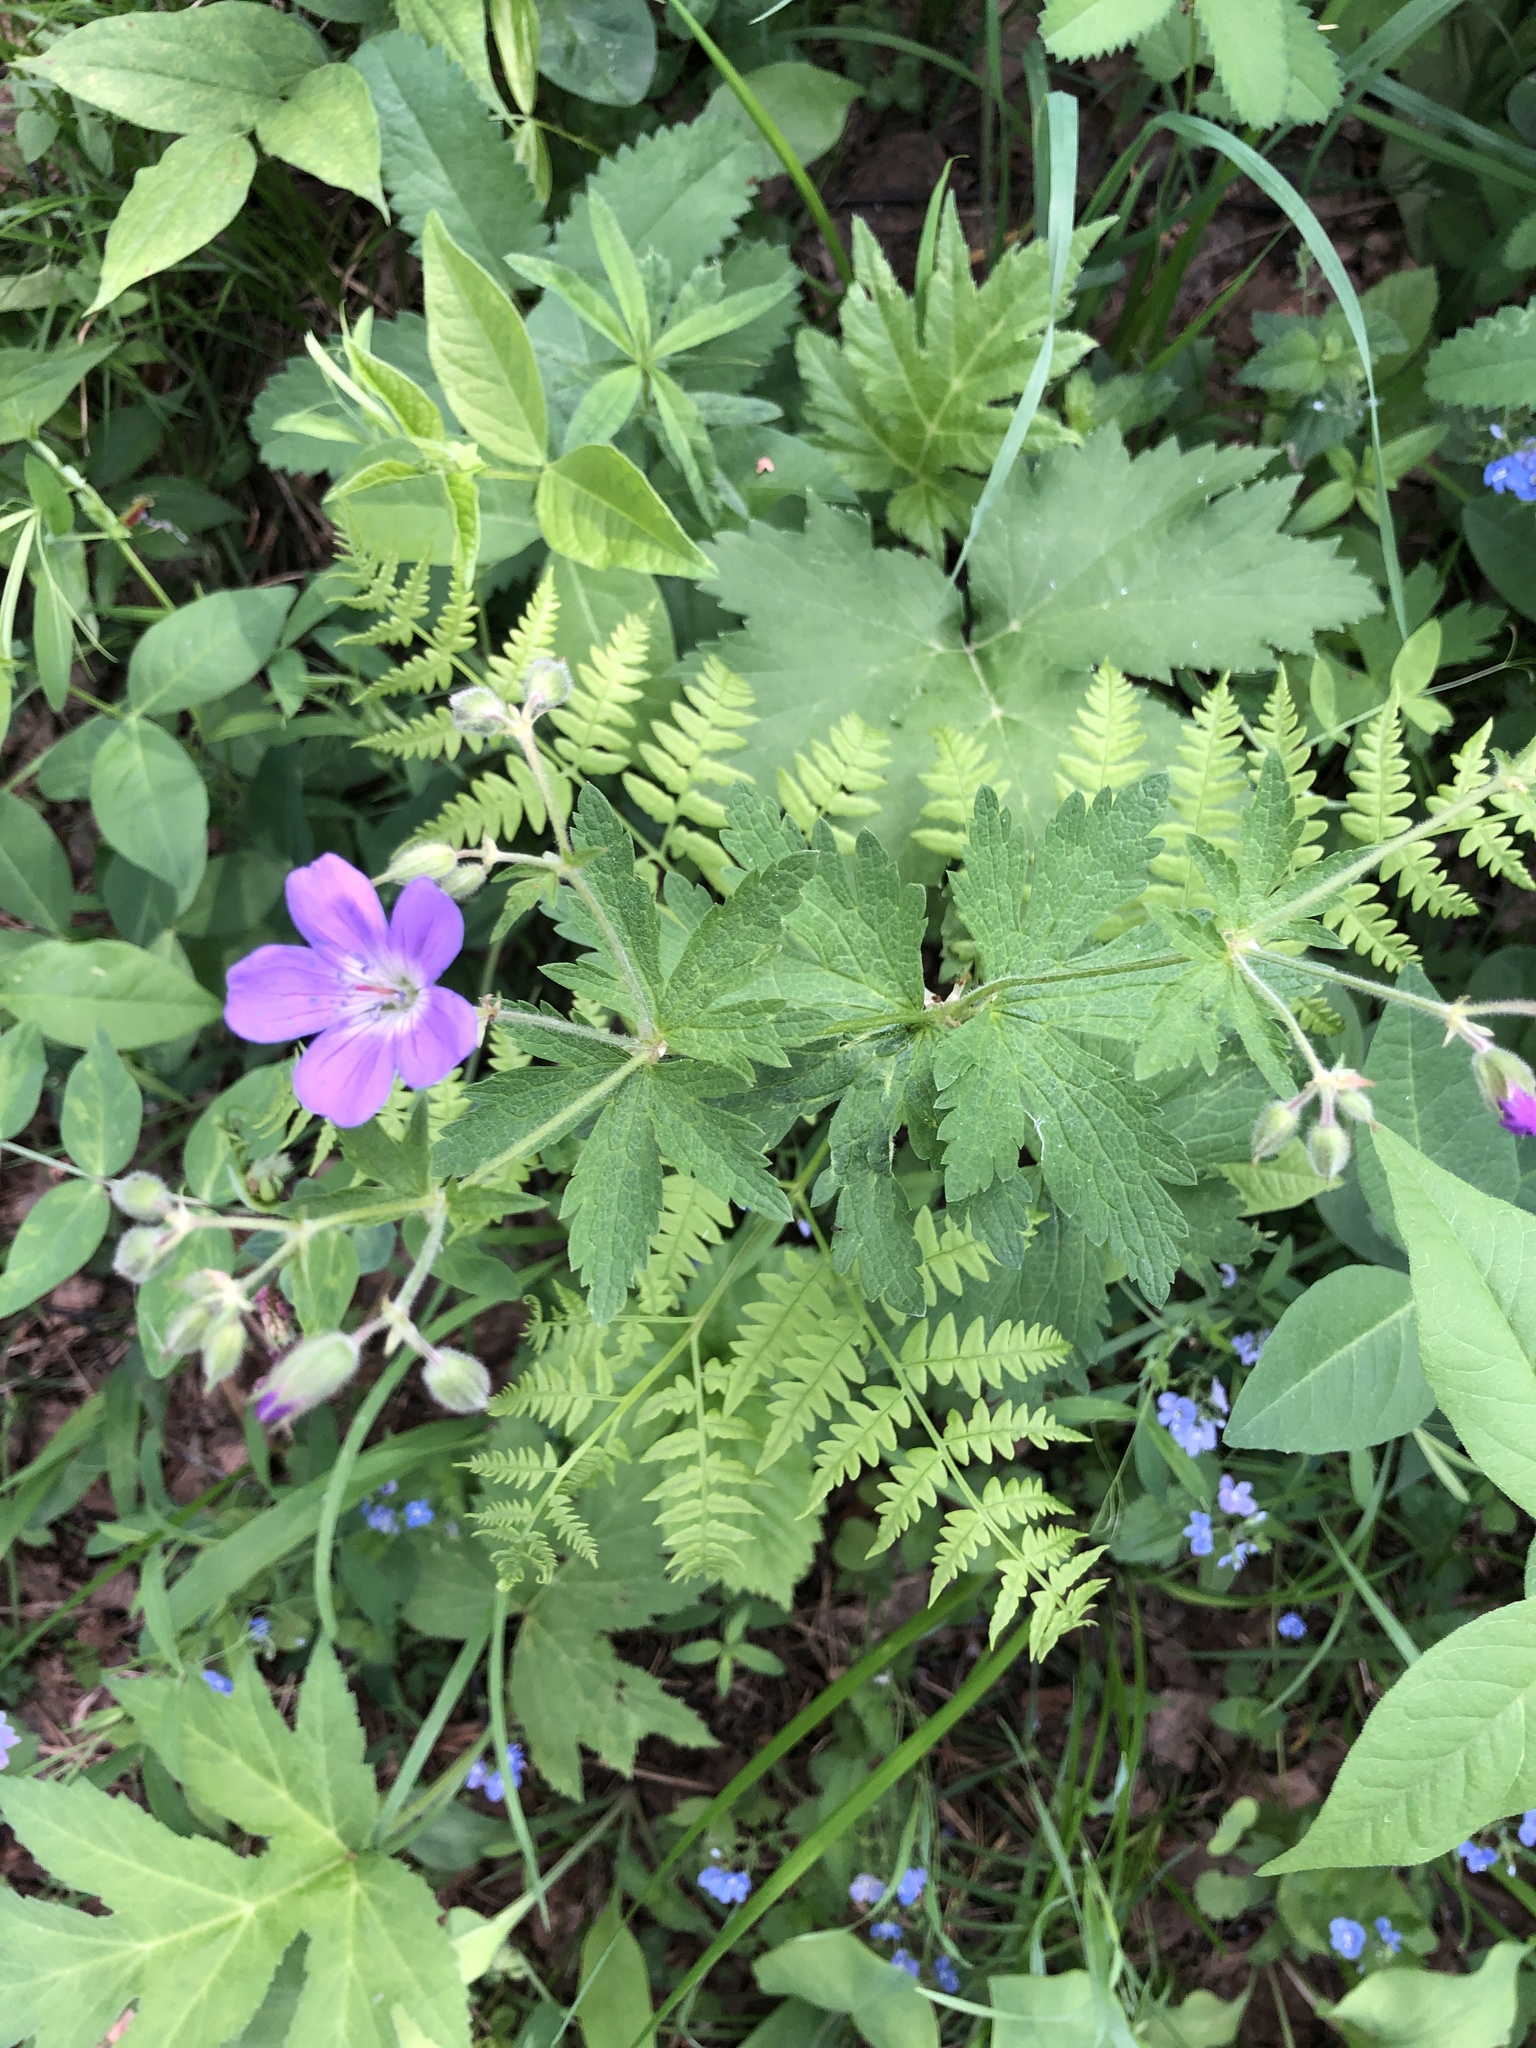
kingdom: Plantae
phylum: Tracheophyta
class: Magnoliopsida
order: Geraniales
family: Geraniaceae
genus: Geranium
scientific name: Geranium sylvaticum
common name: Wood crane's-bill
